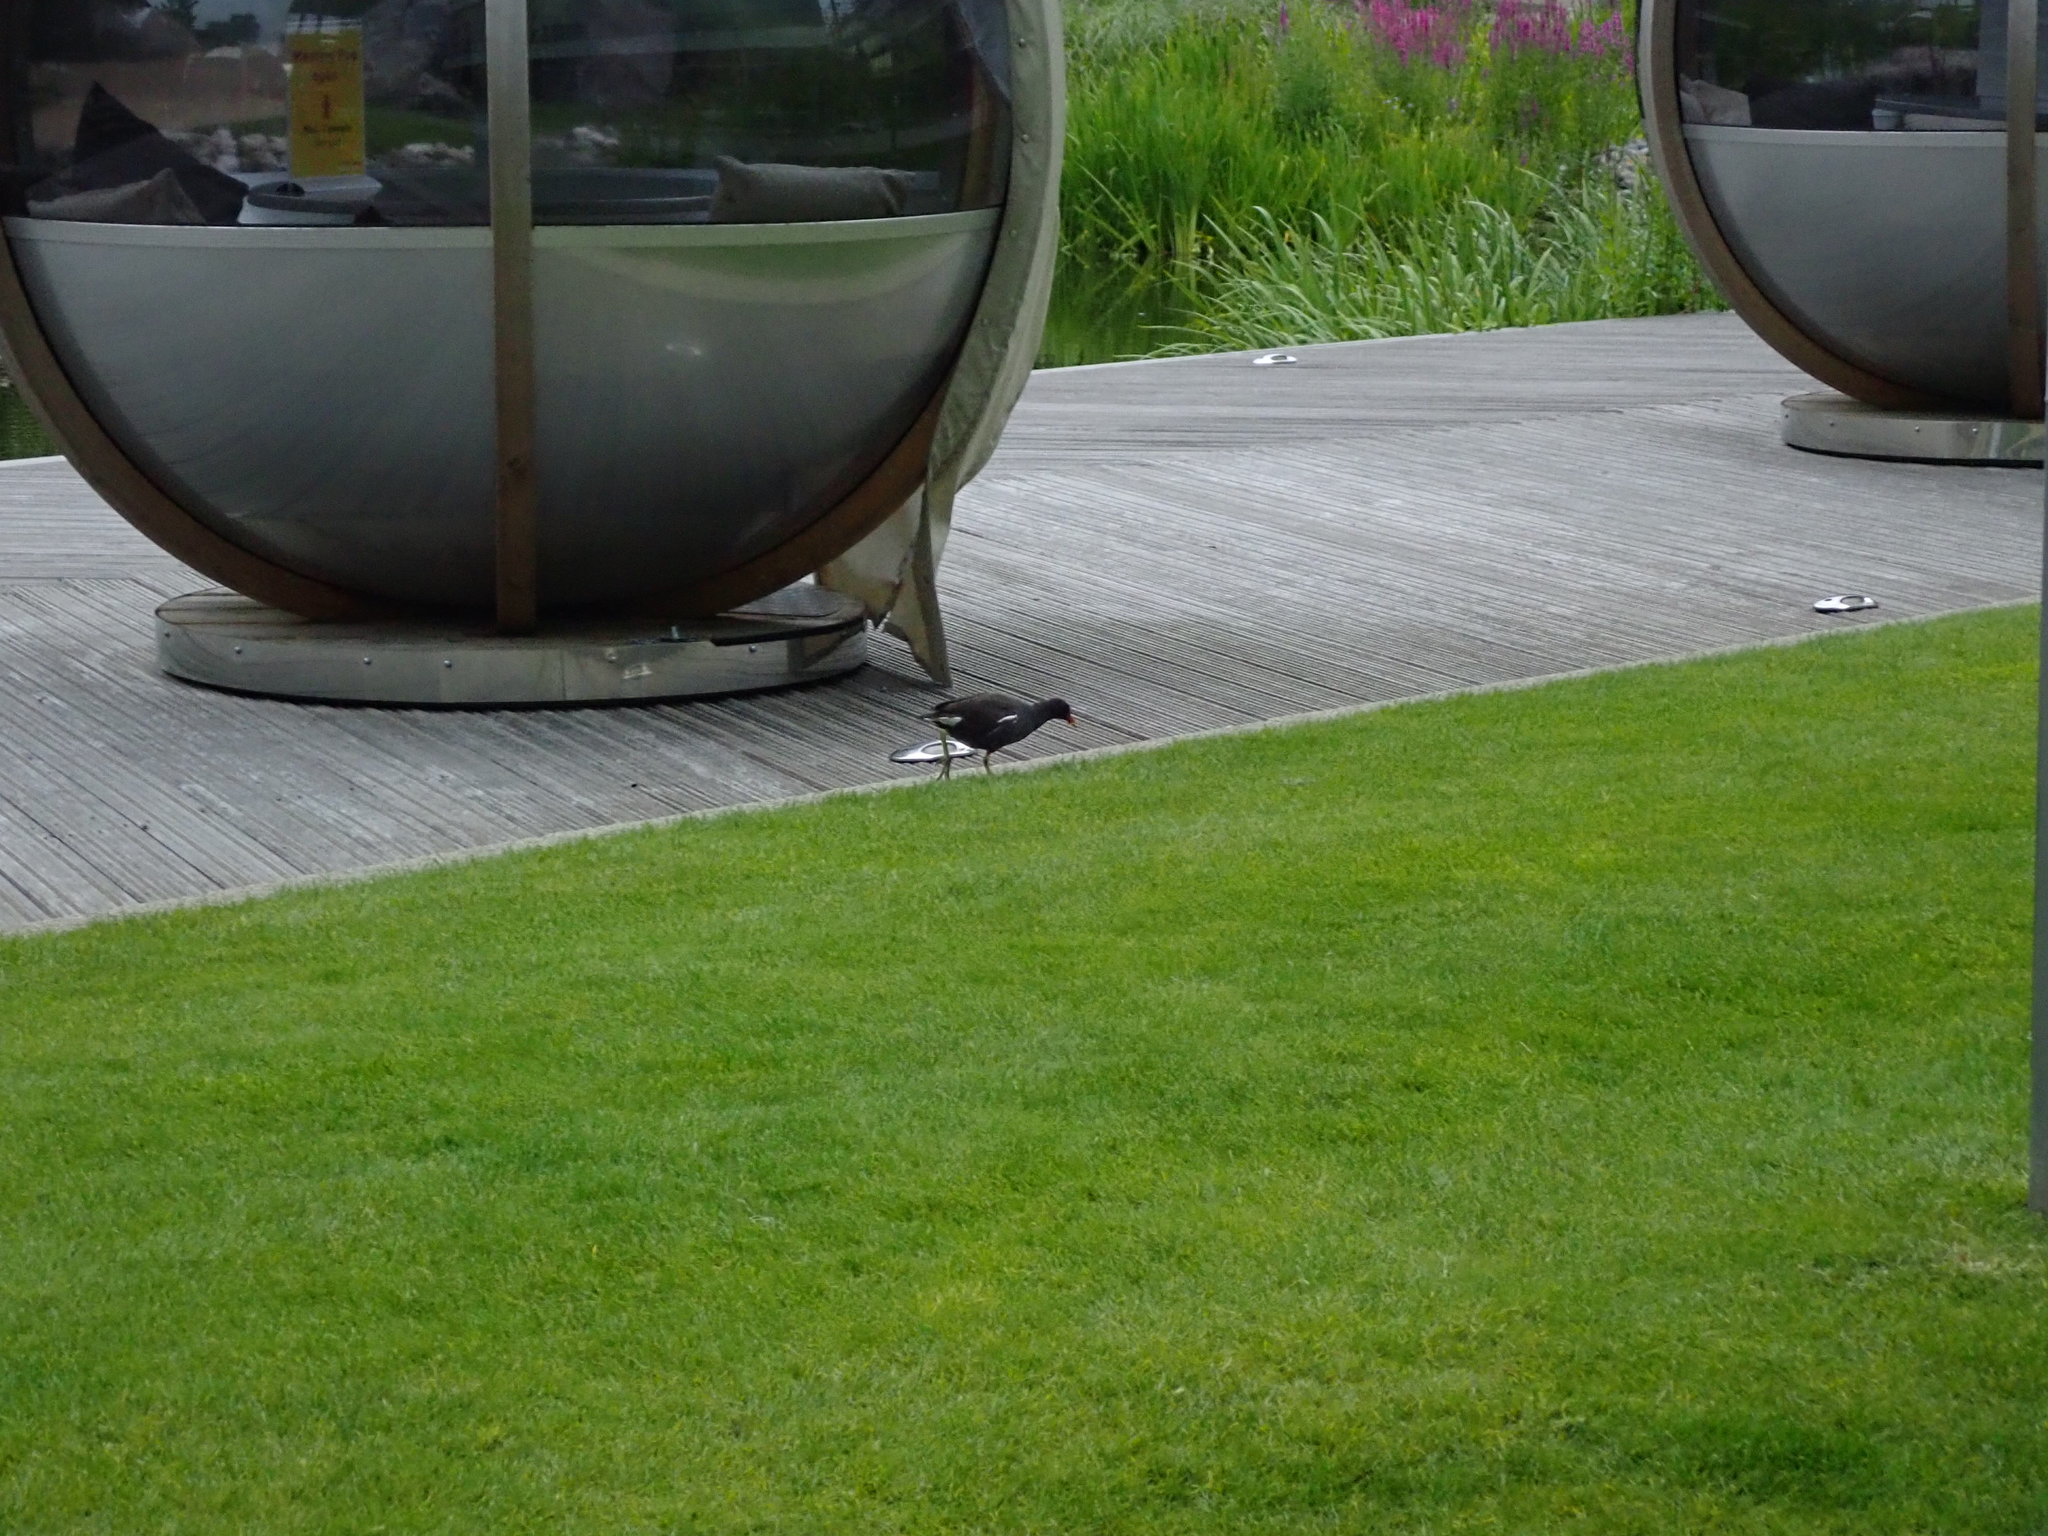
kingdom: Animalia
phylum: Chordata
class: Aves
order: Gruiformes
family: Rallidae
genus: Gallinula
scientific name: Gallinula chloropus
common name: Common moorhen
